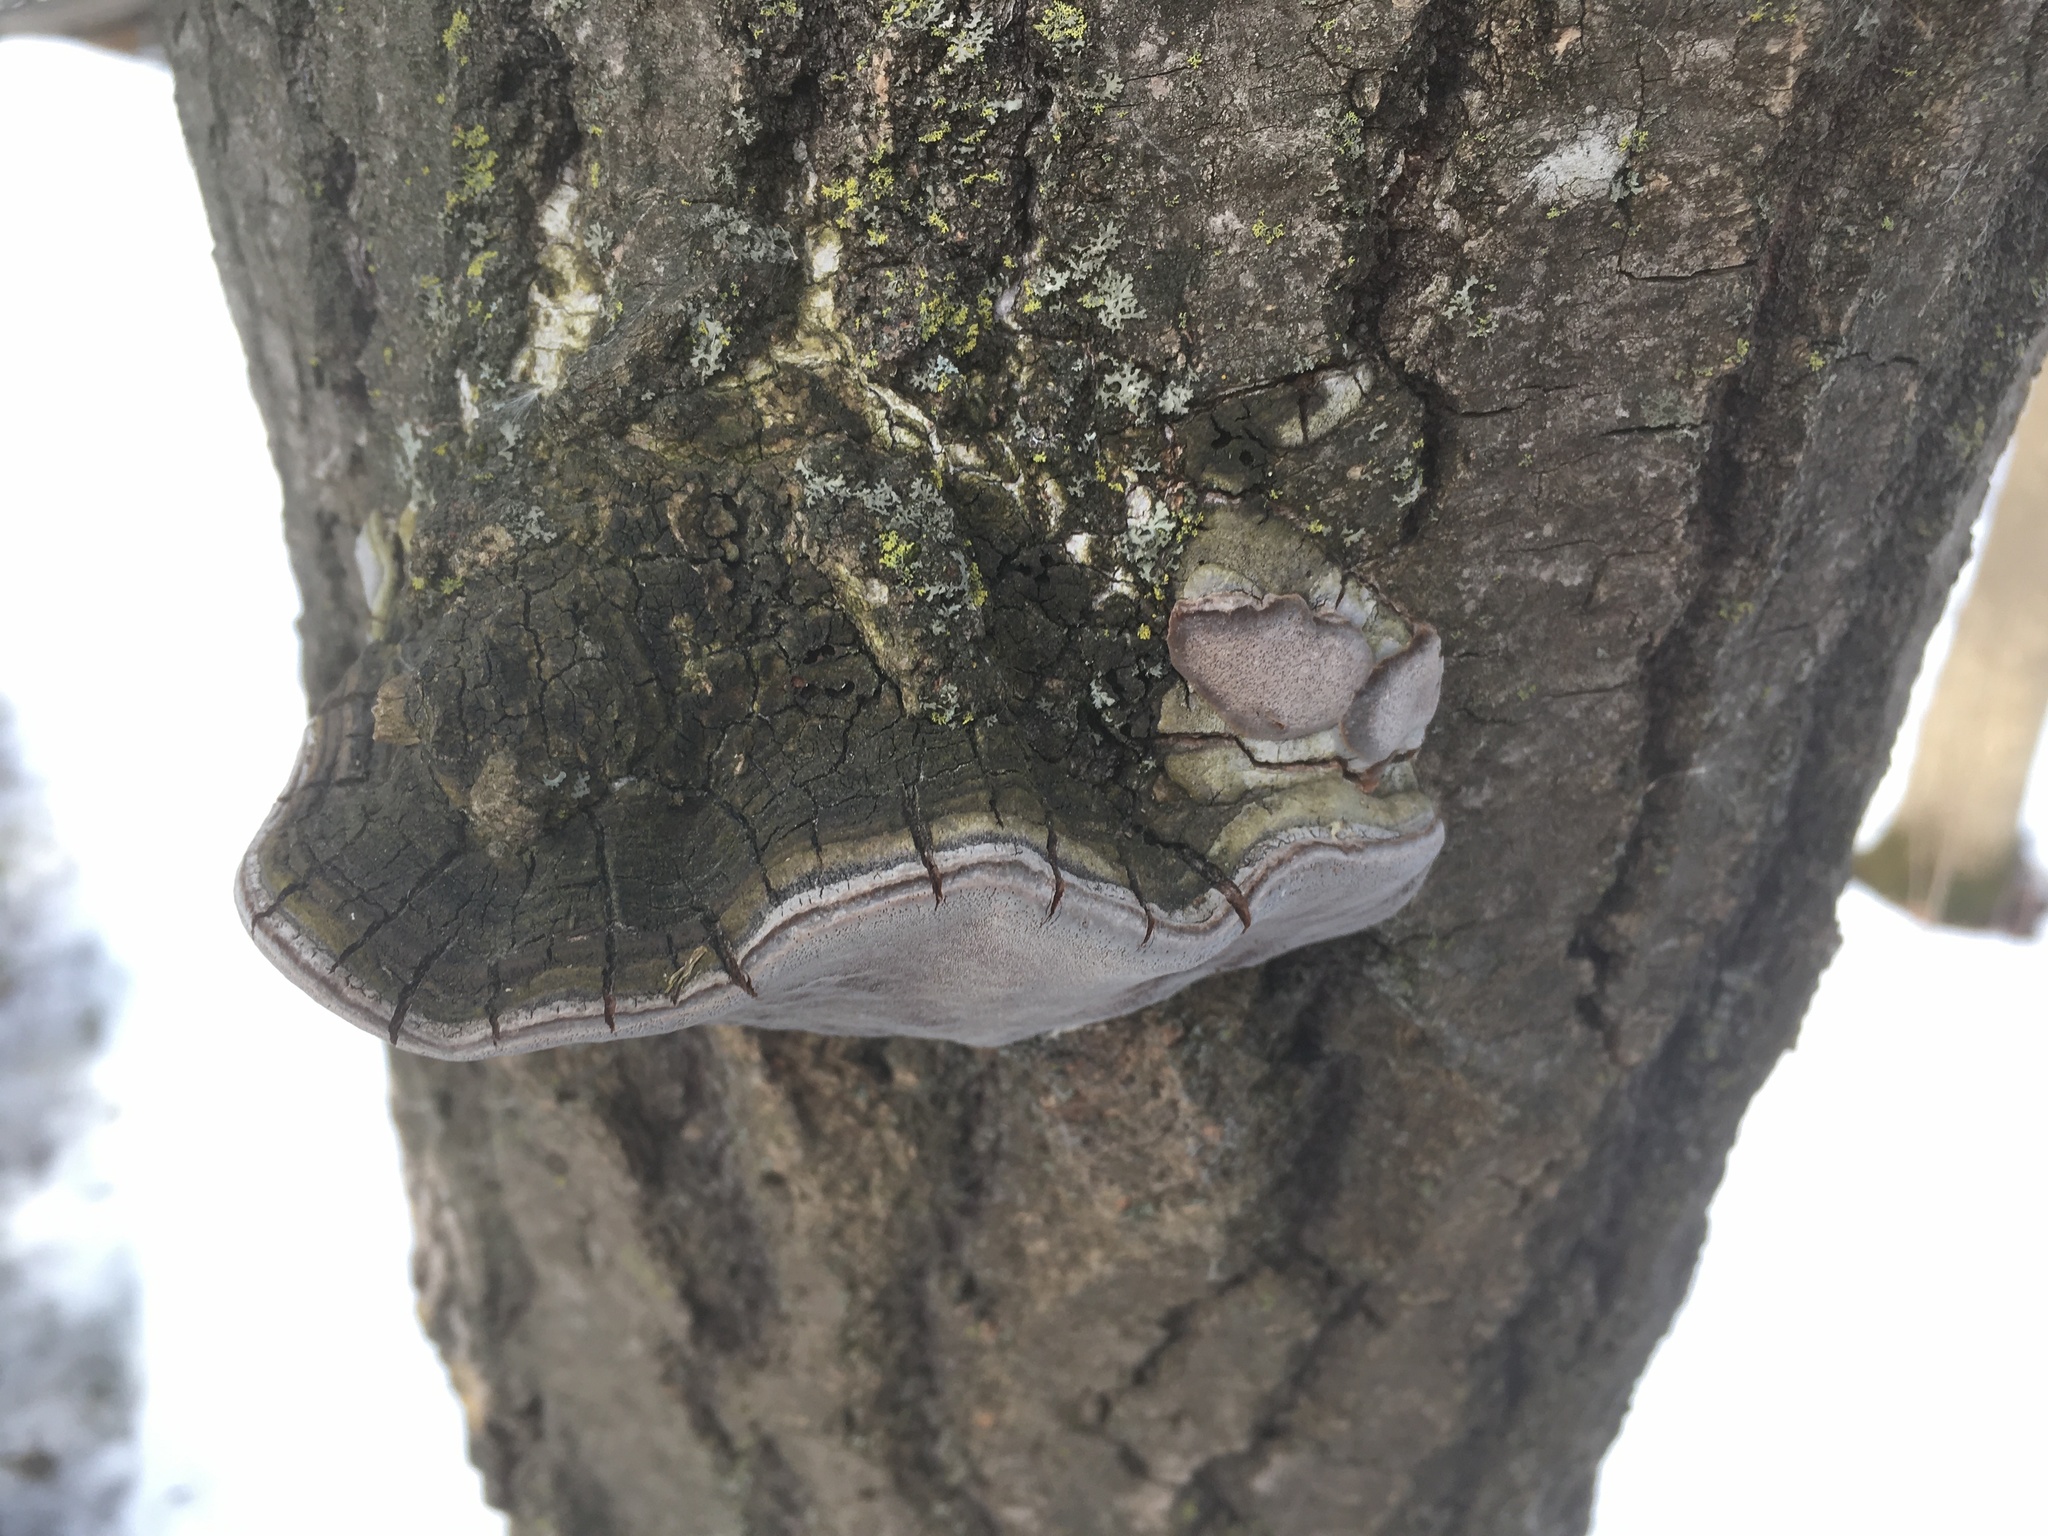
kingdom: Fungi
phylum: Basidiomycota
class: Agaricomycetes
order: Hymenochaetales
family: Hymenochaetaceae
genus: Phellinus
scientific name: Phellinus tremulae
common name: Aspen bracket
